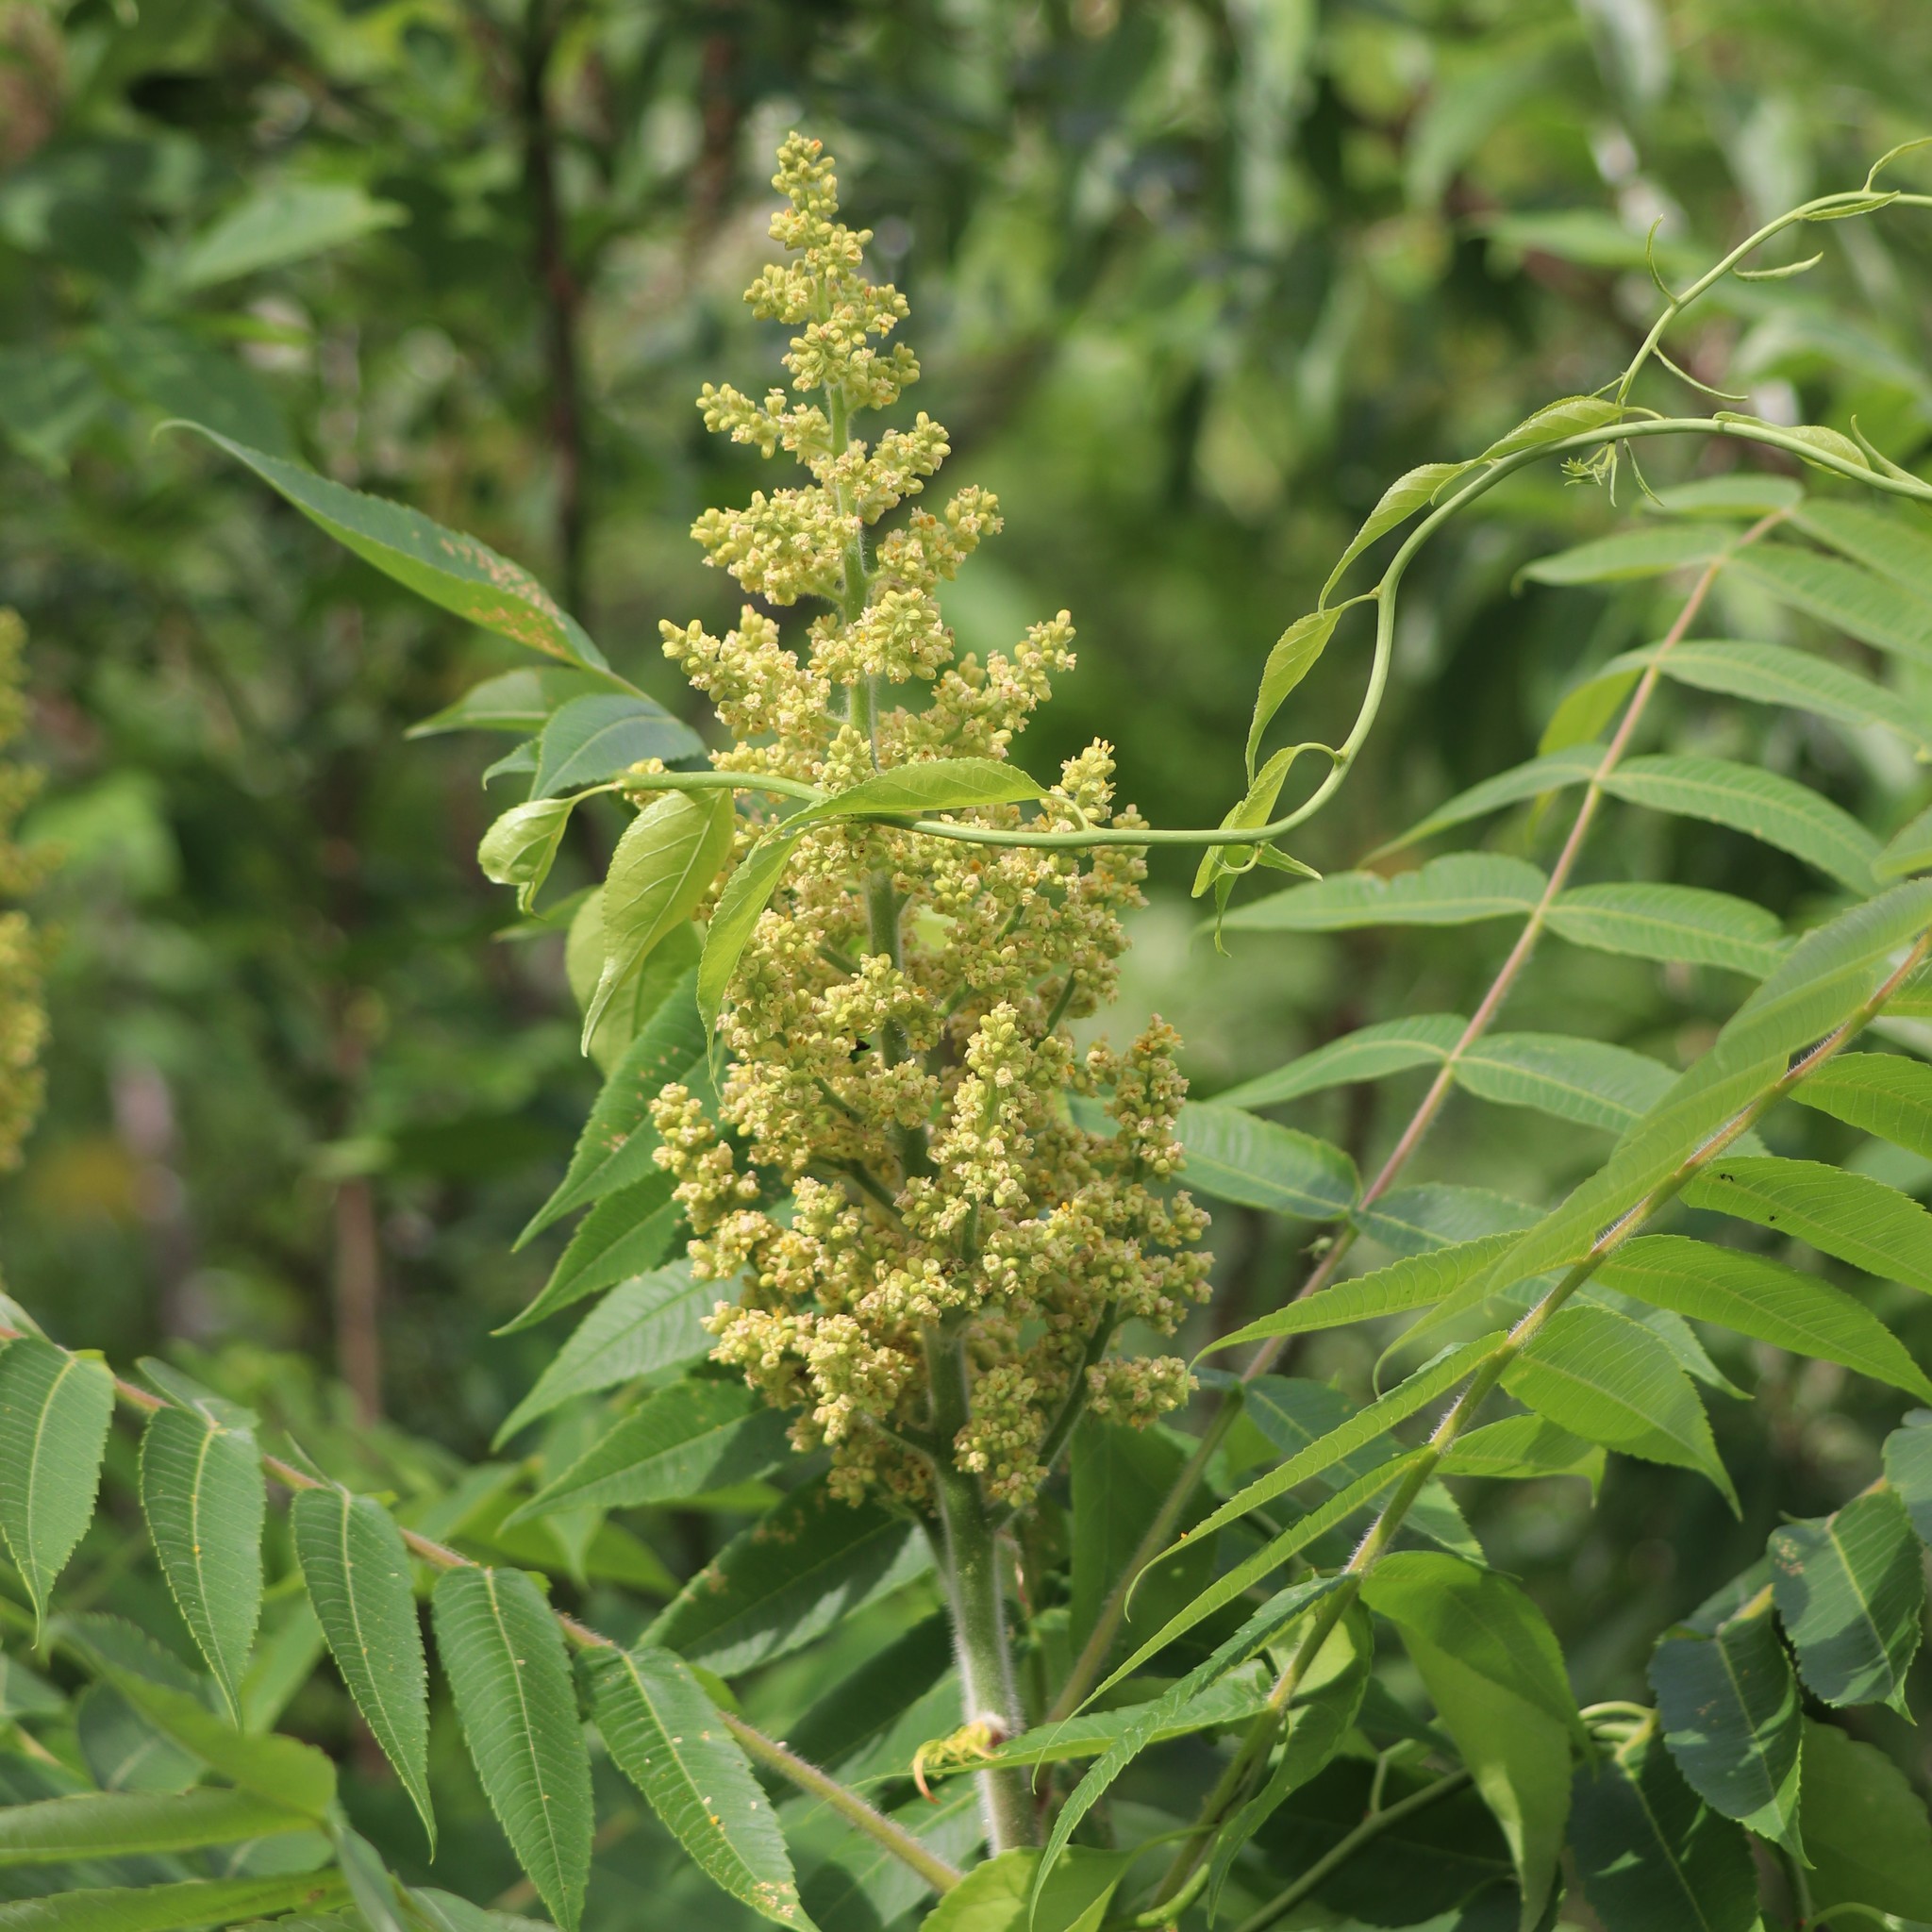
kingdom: Plantae
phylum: Tracheophyta
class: Magnoliopsida
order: Sapindales
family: Anacardiaceae
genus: Rhus
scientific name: Rhus typhina
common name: Staghorn sumac
